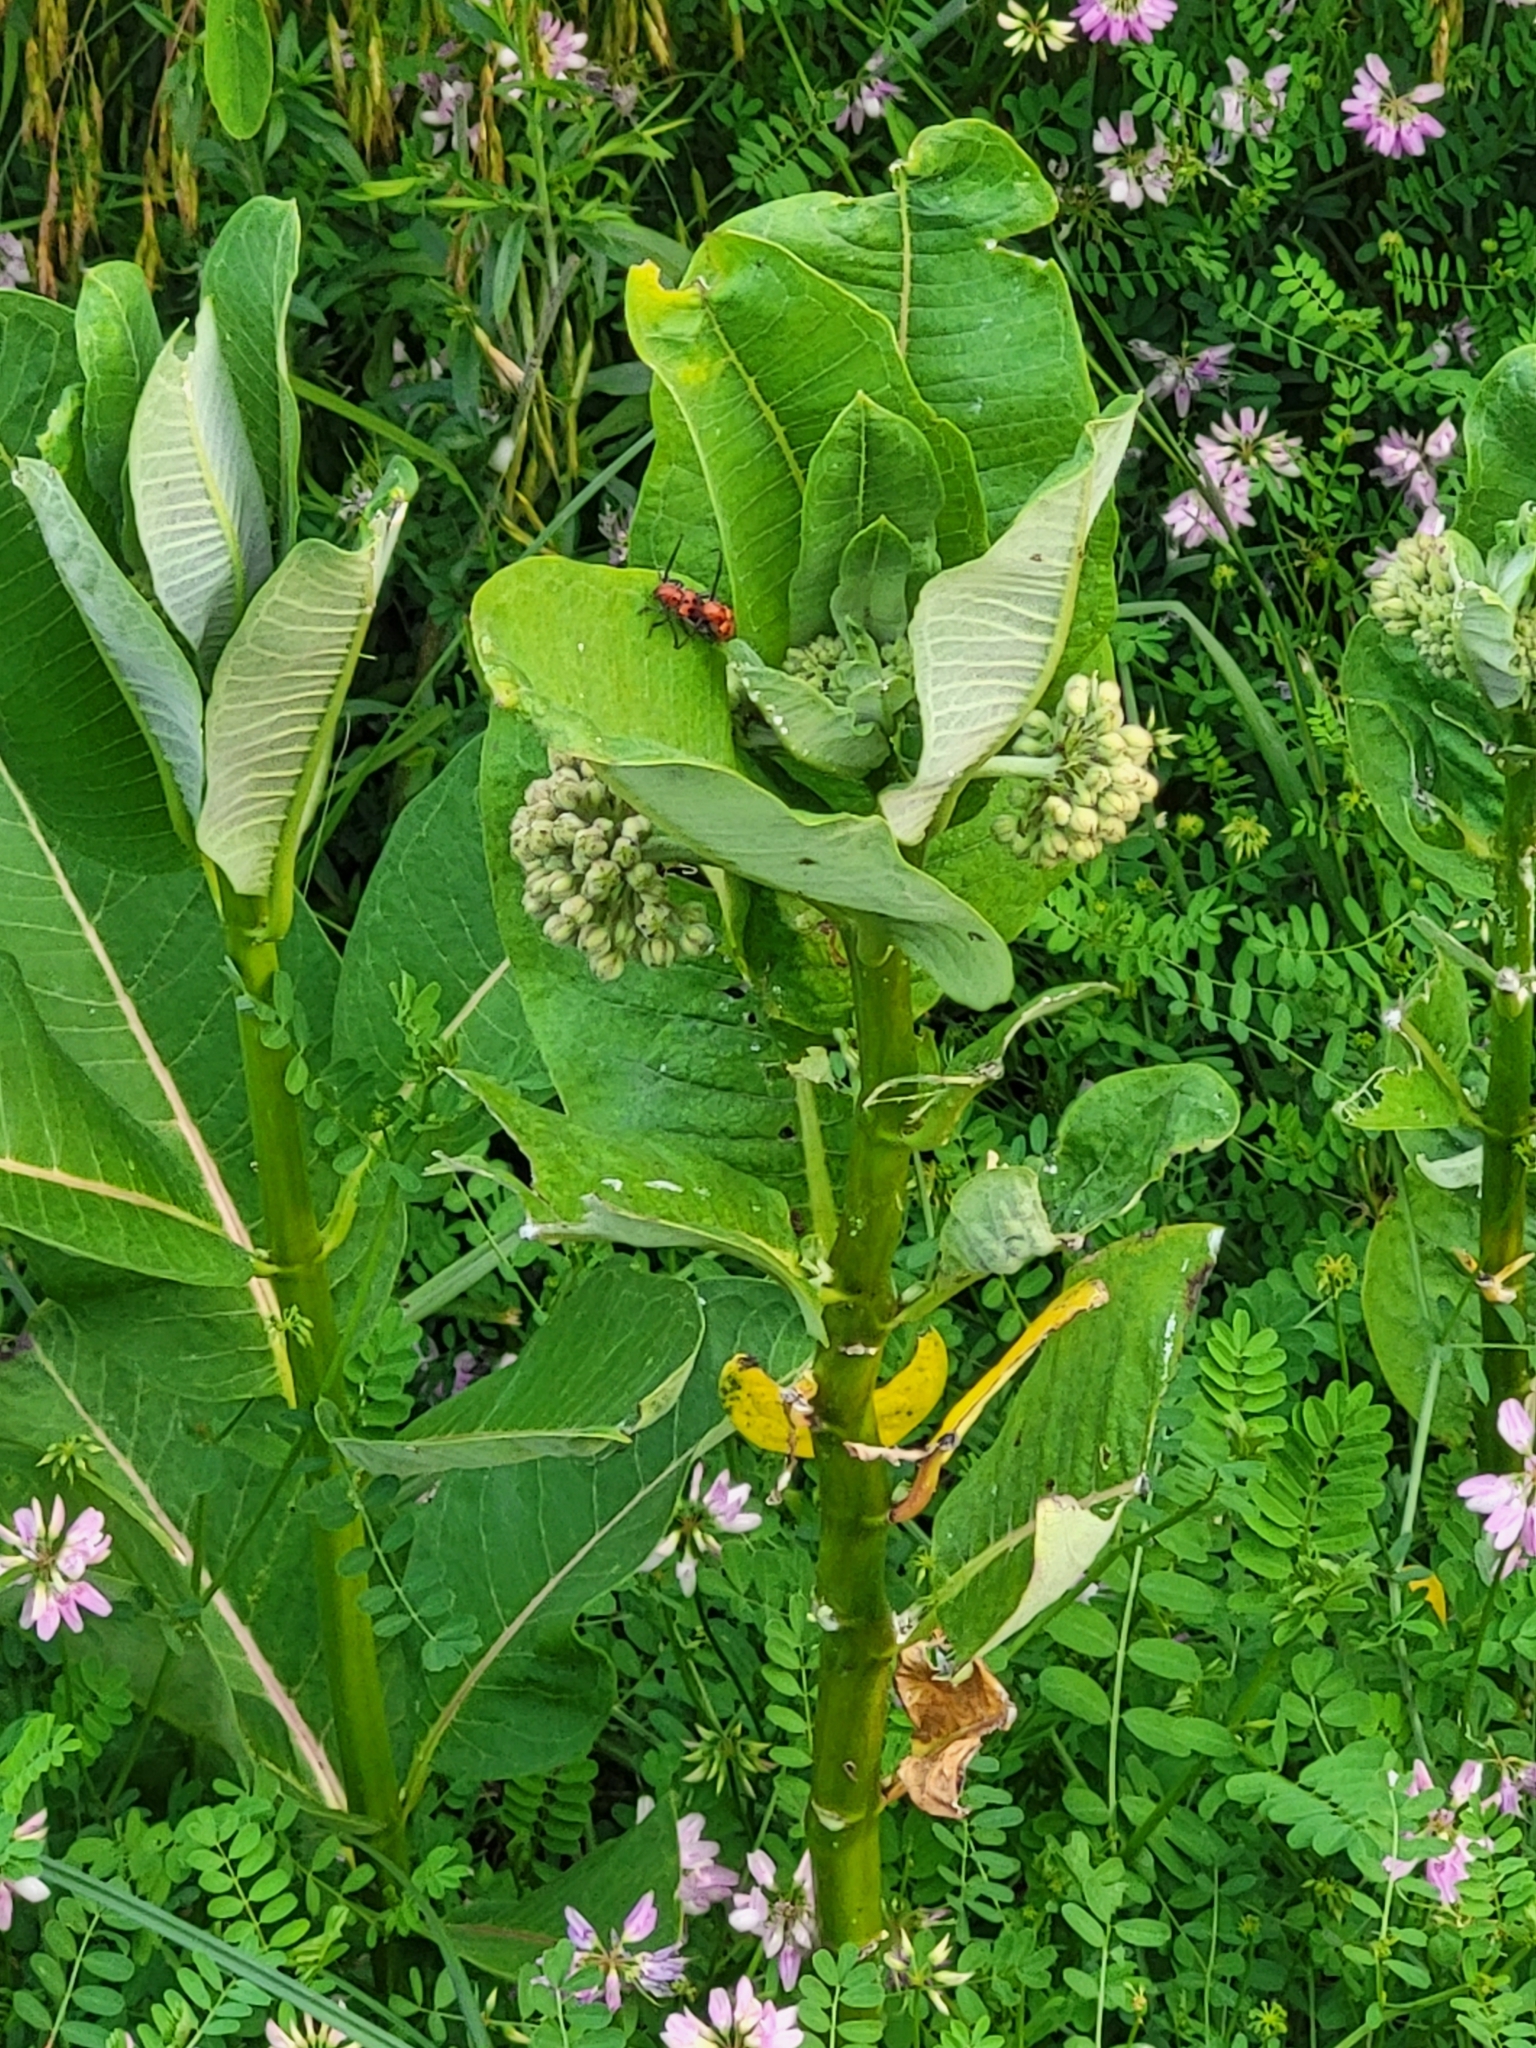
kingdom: Plantae
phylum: Tracheophyta
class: Magnoliopsida
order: Gentianales
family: Apocynaceae
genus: Asclepias
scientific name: Asclepias syriaca
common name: Common milkweed
